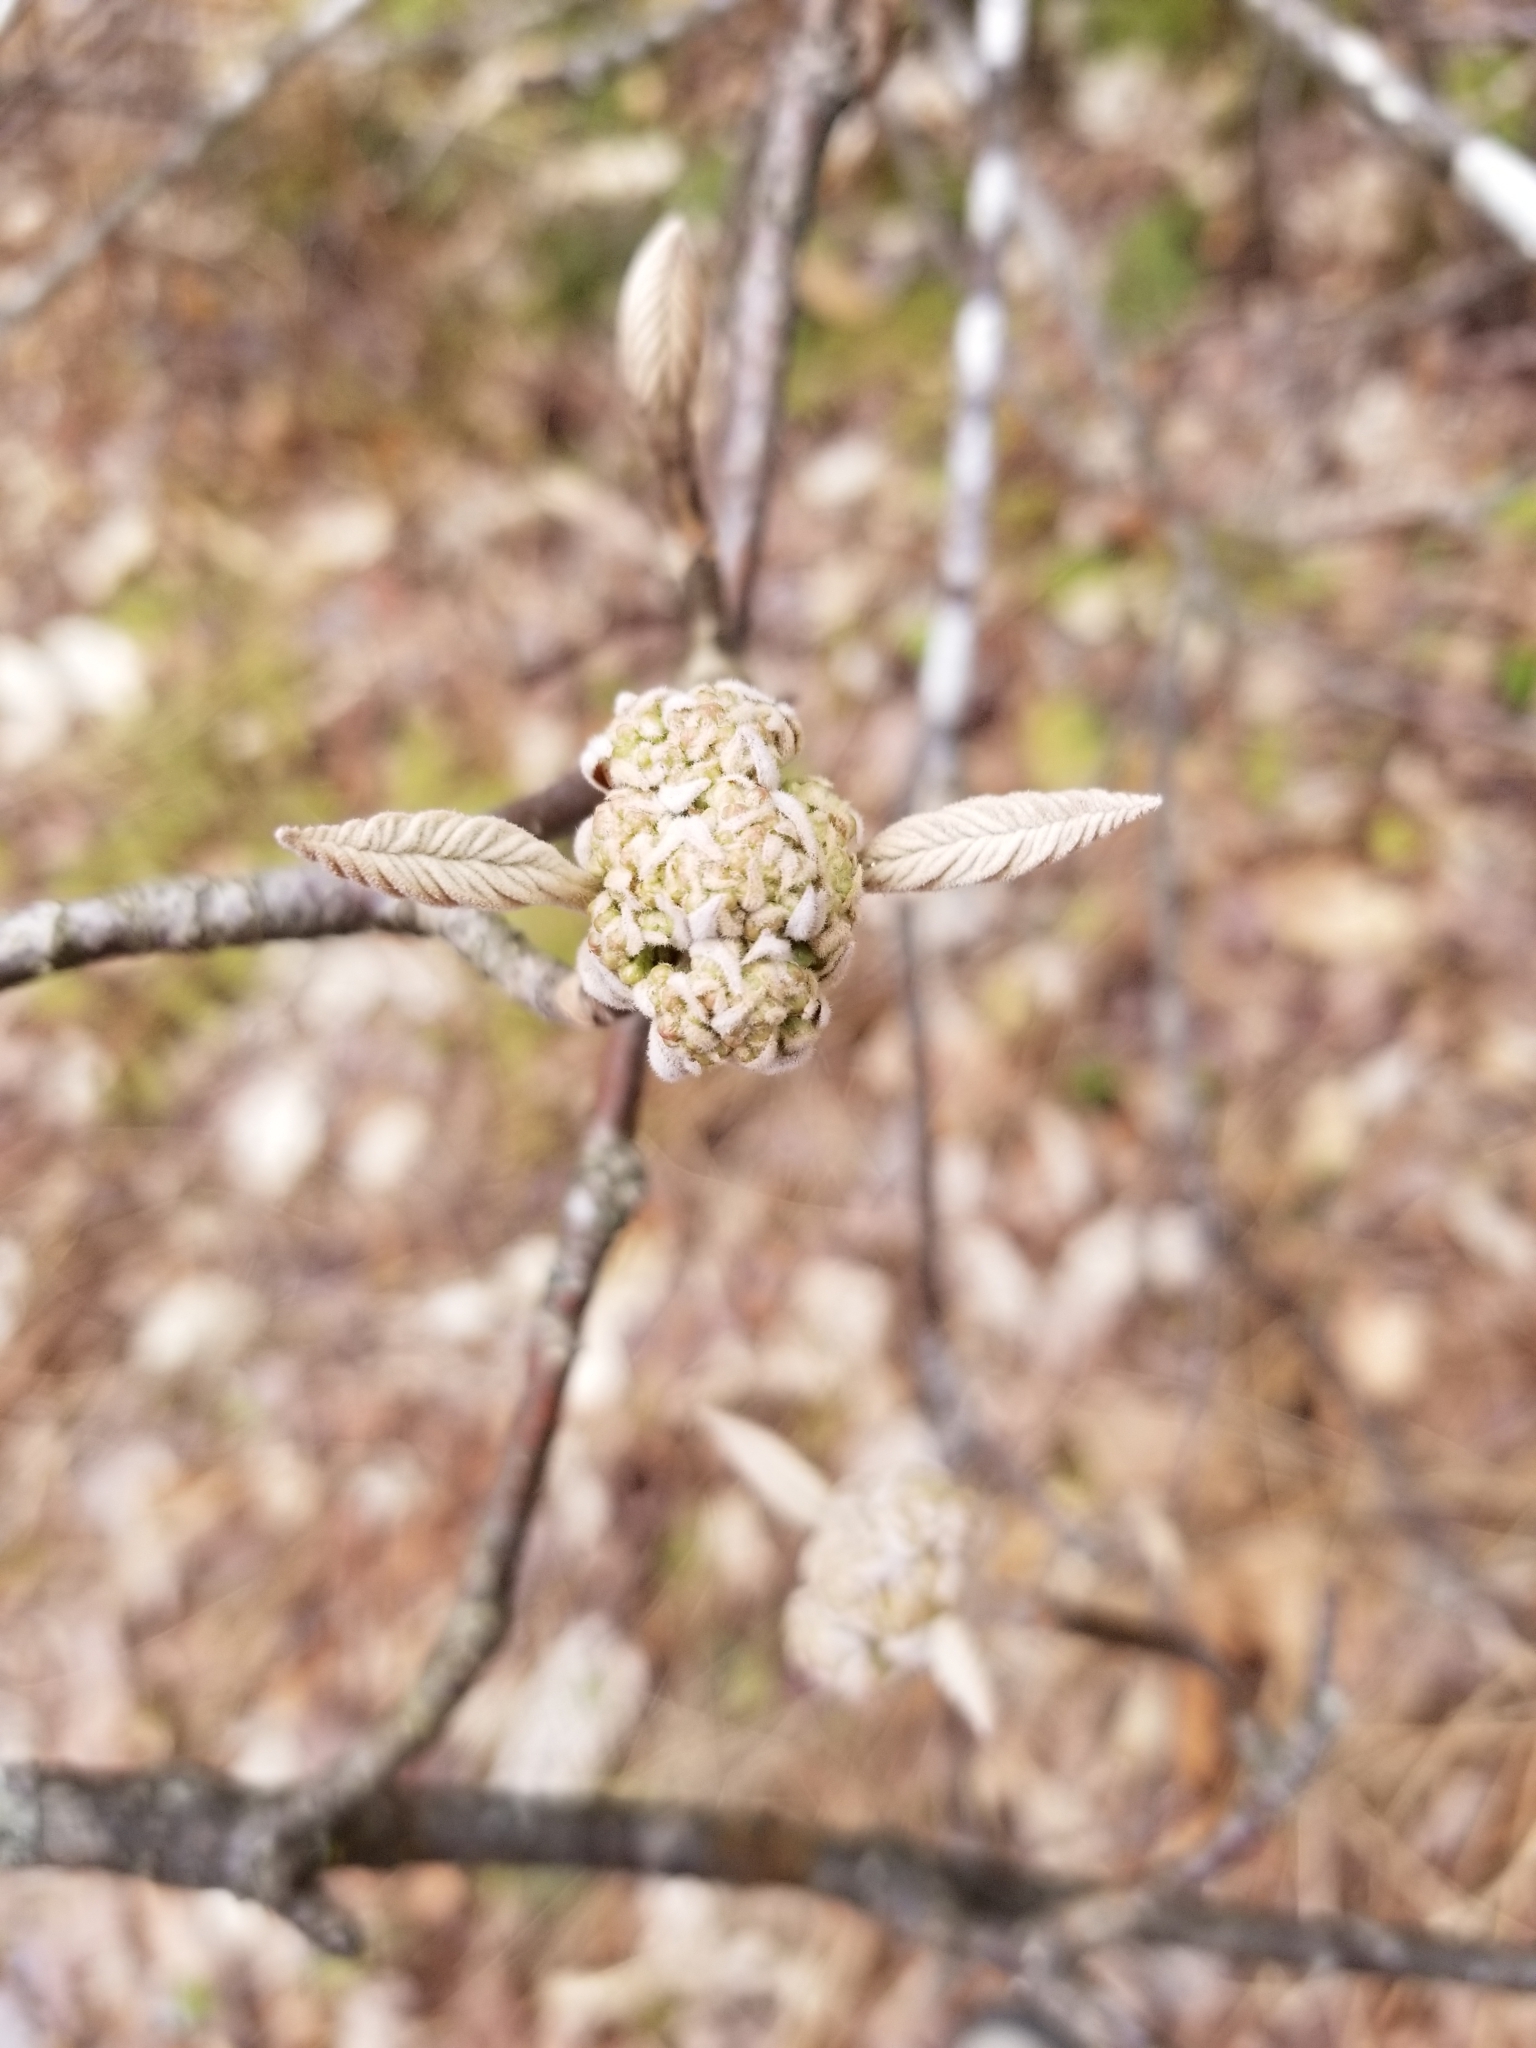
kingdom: Plantae
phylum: Tracheophyta
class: Magnoliopsida
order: Dipsacales
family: Viburnaceae
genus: Viburnum
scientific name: Viburnum lantanoides
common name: Hobblebush
